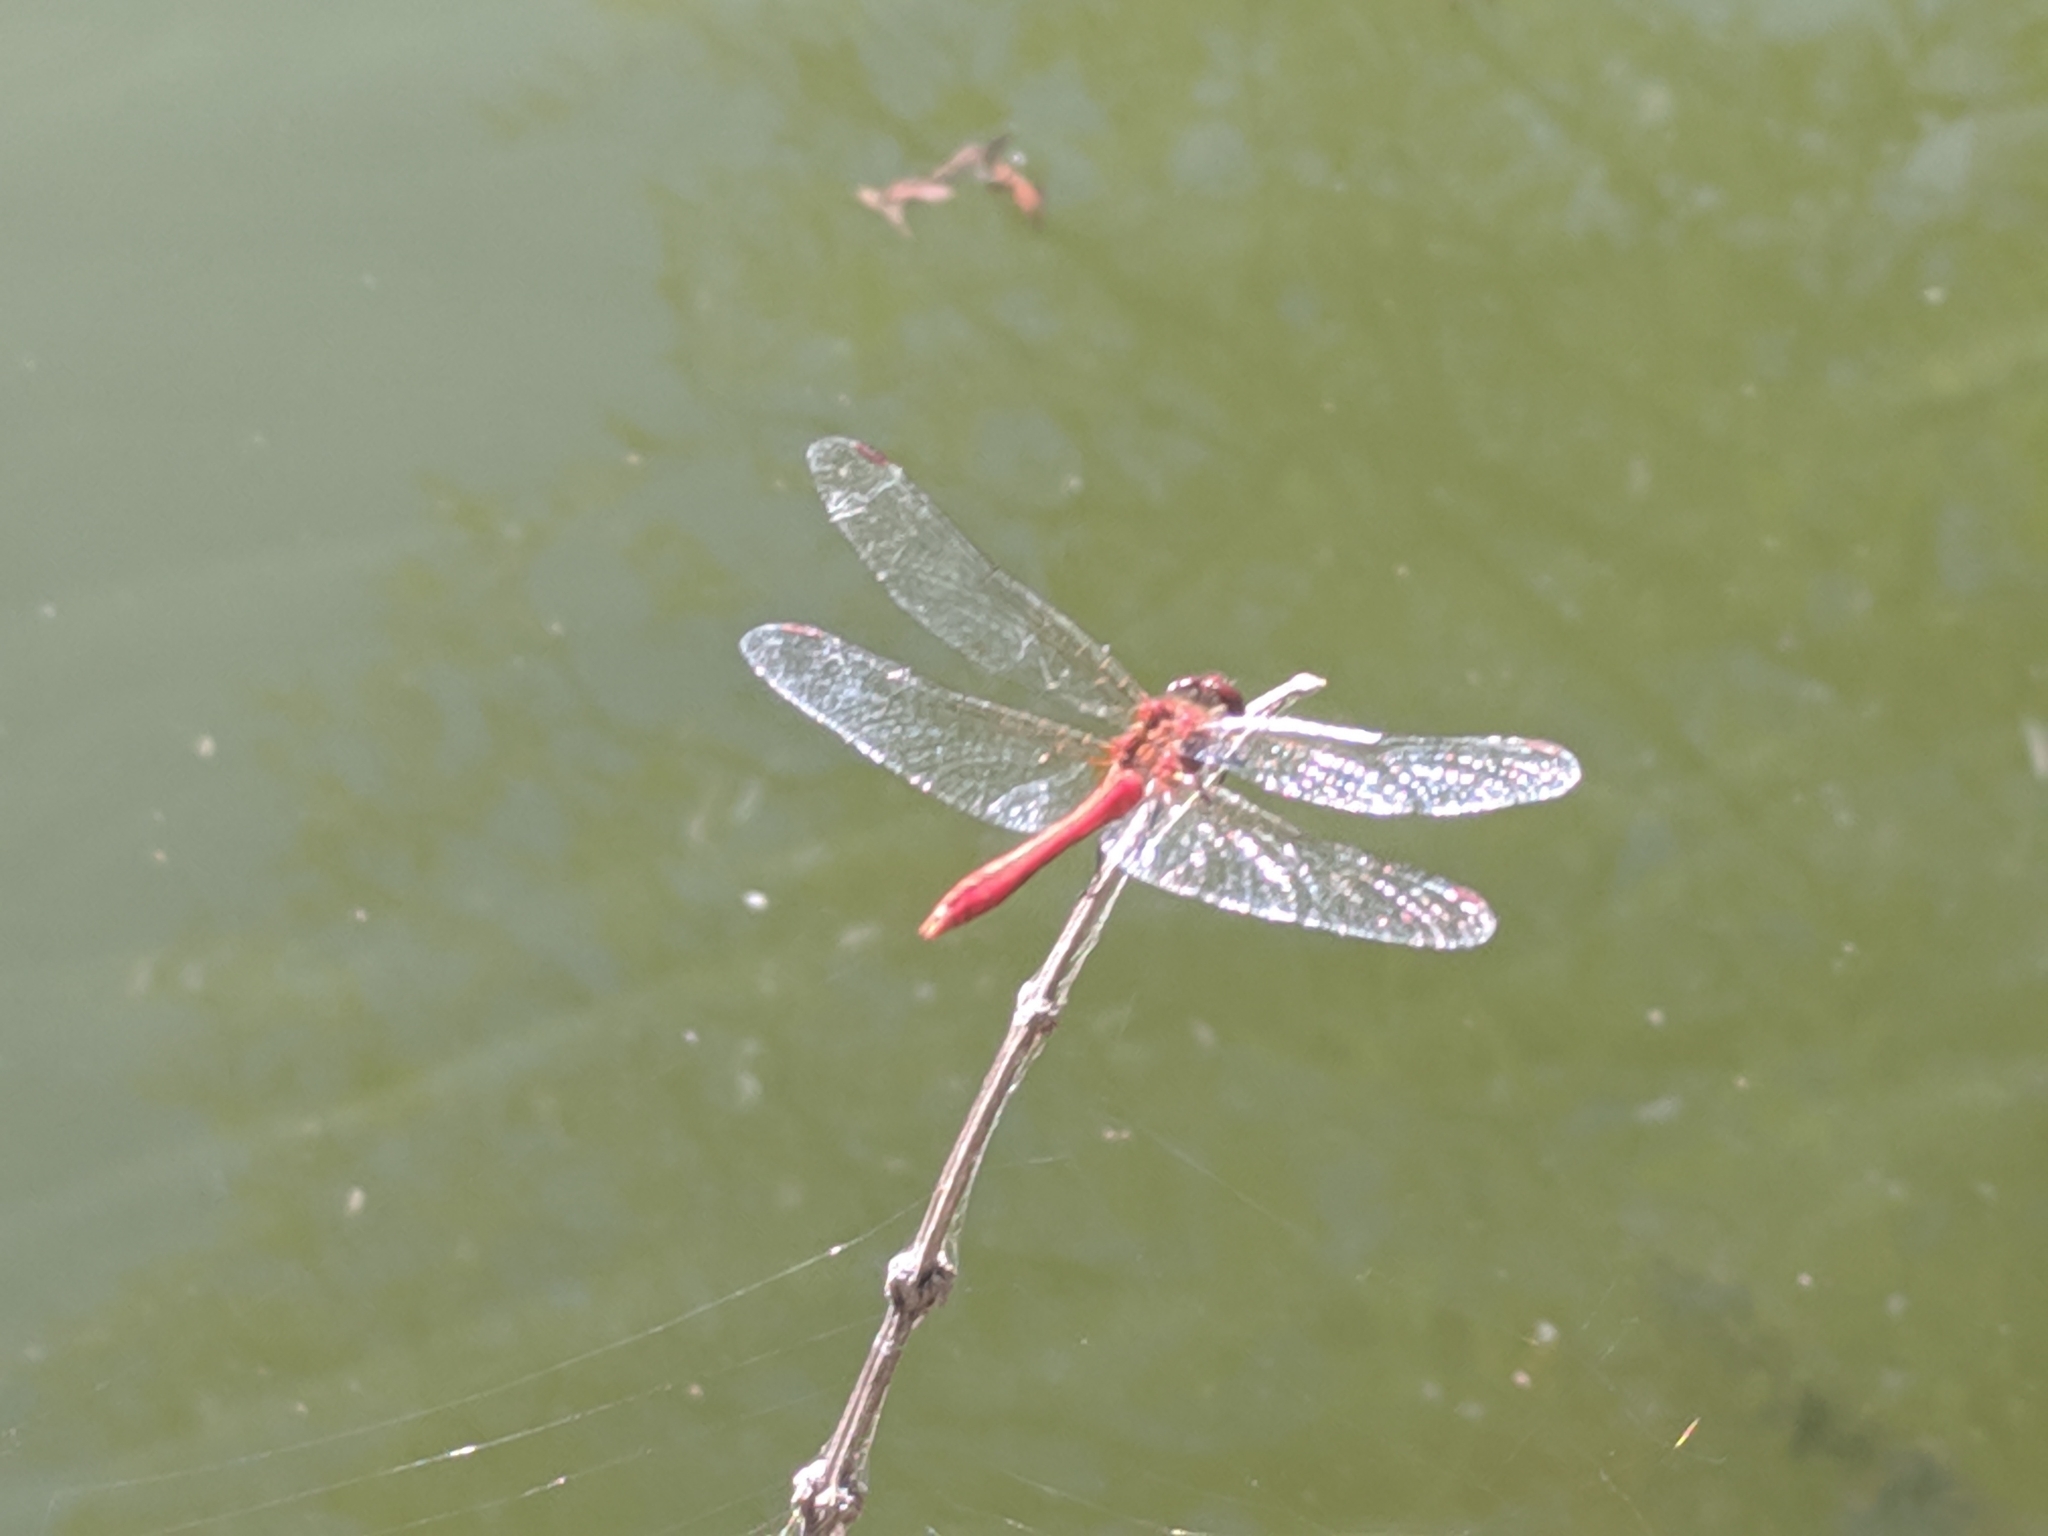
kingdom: Animalia
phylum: Arthropoda
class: Insecta
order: Odonata
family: Libellulidae
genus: Sympetrum
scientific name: Sympetrum sanguineum
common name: Ruddy darter
